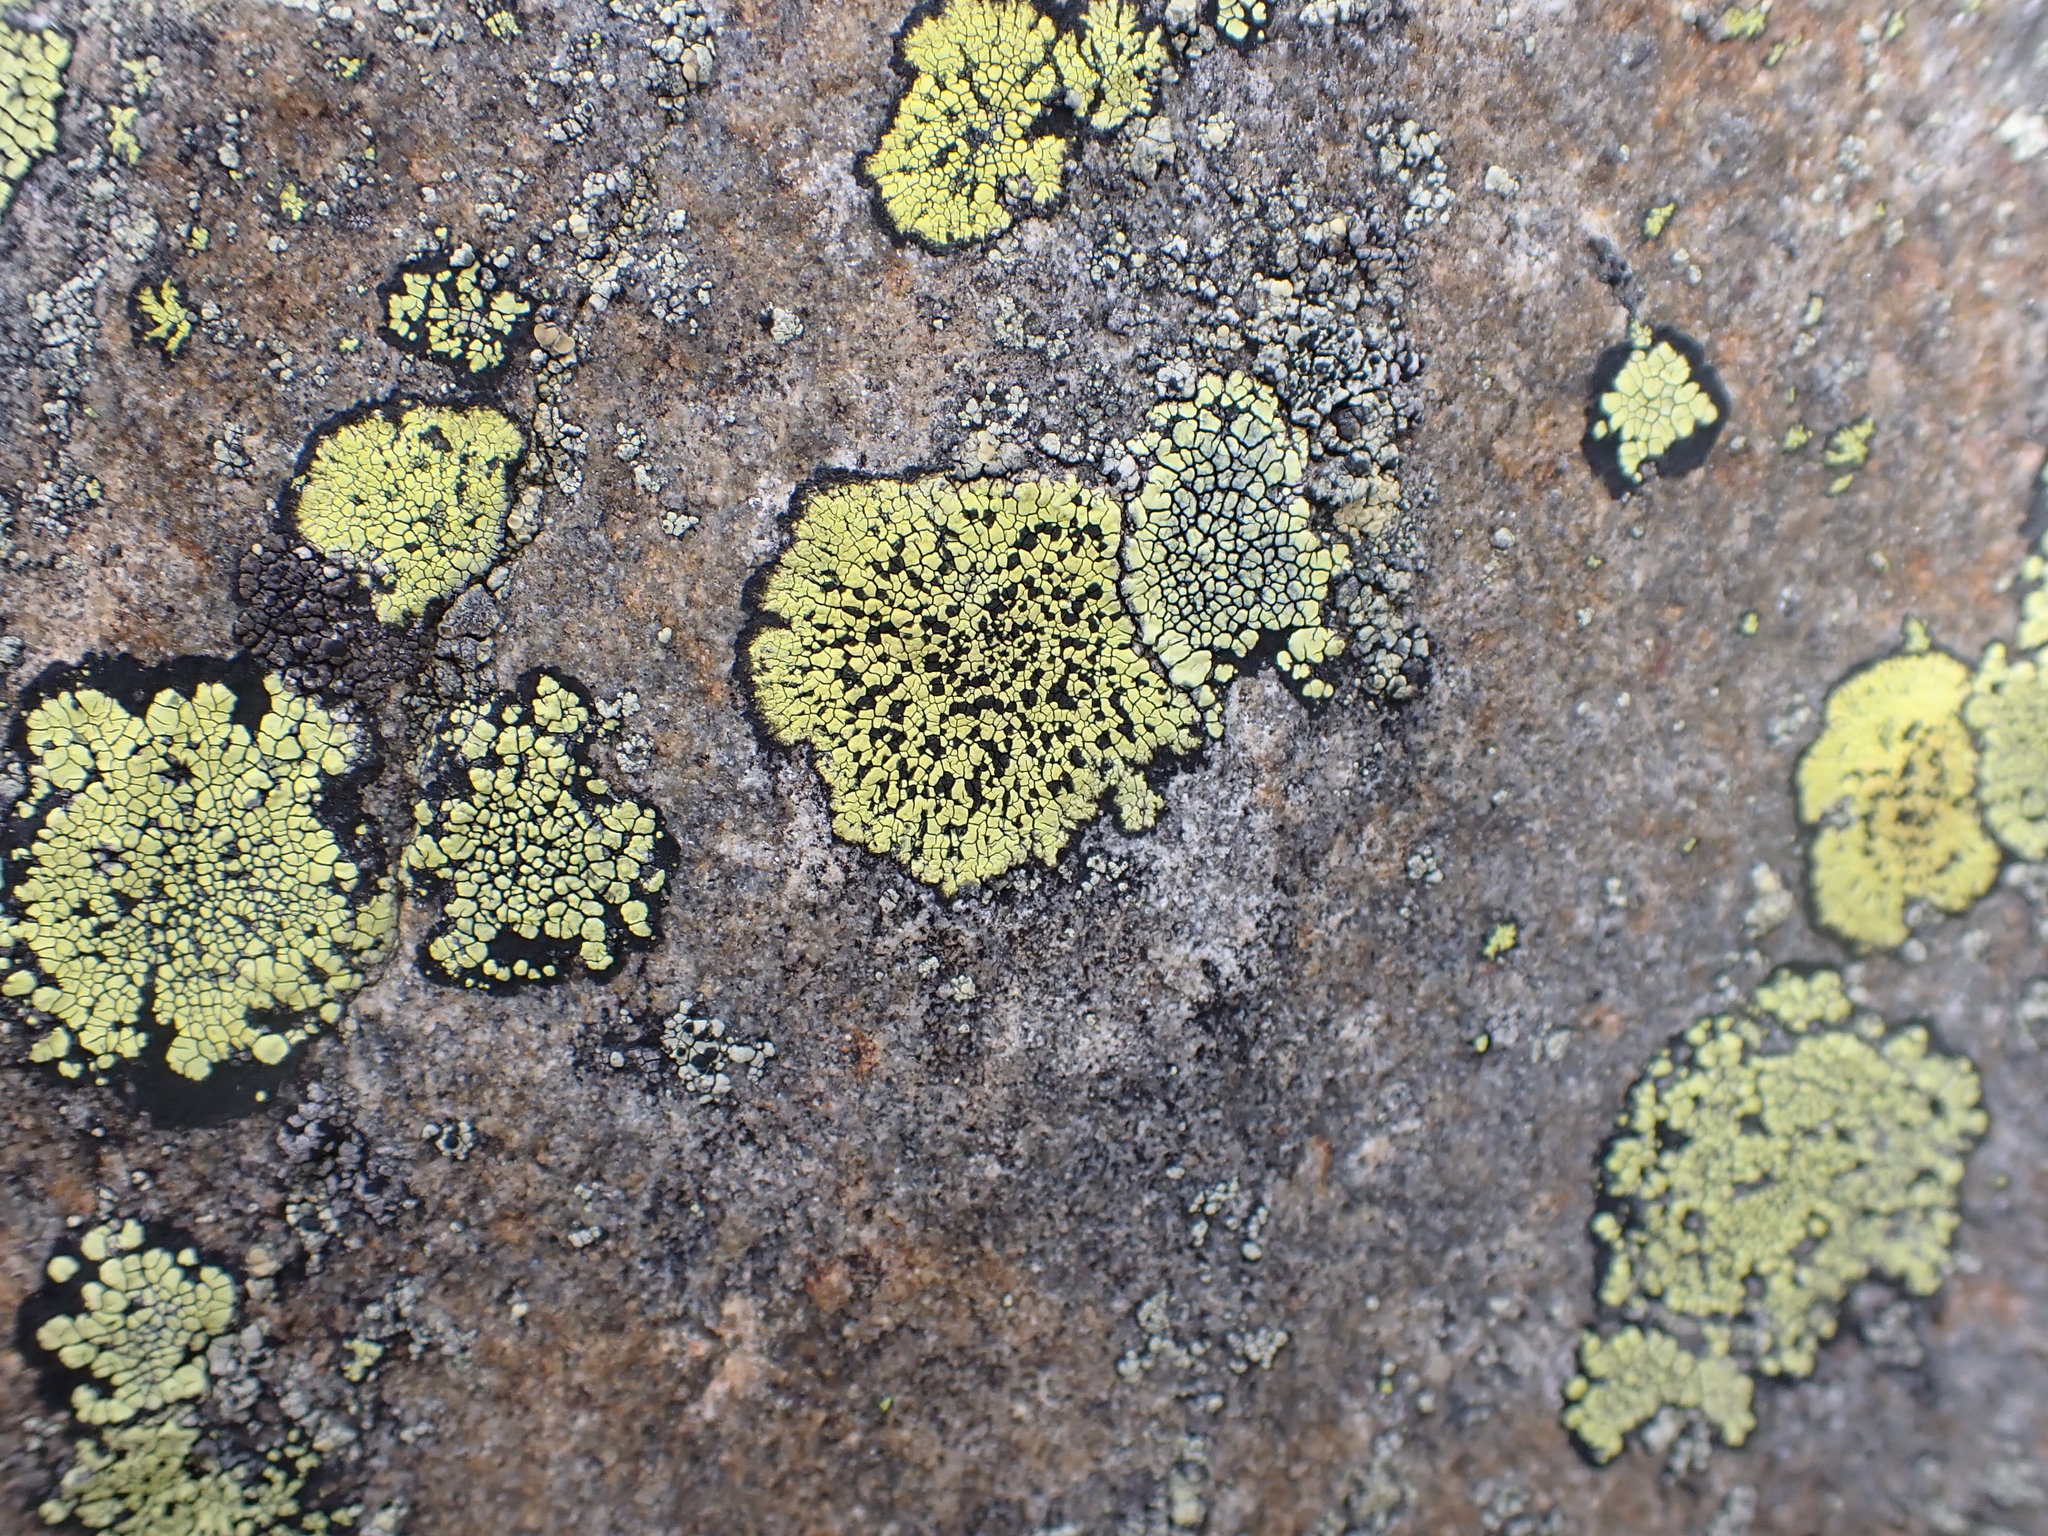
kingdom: Fungi
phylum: Ascomycota
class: Lecanoromycetes
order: Rhizocarpales
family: Rhizocarpaceae
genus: Rhizocarpon
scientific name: Rhizocarpon geographicum
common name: Yellow map lichen
